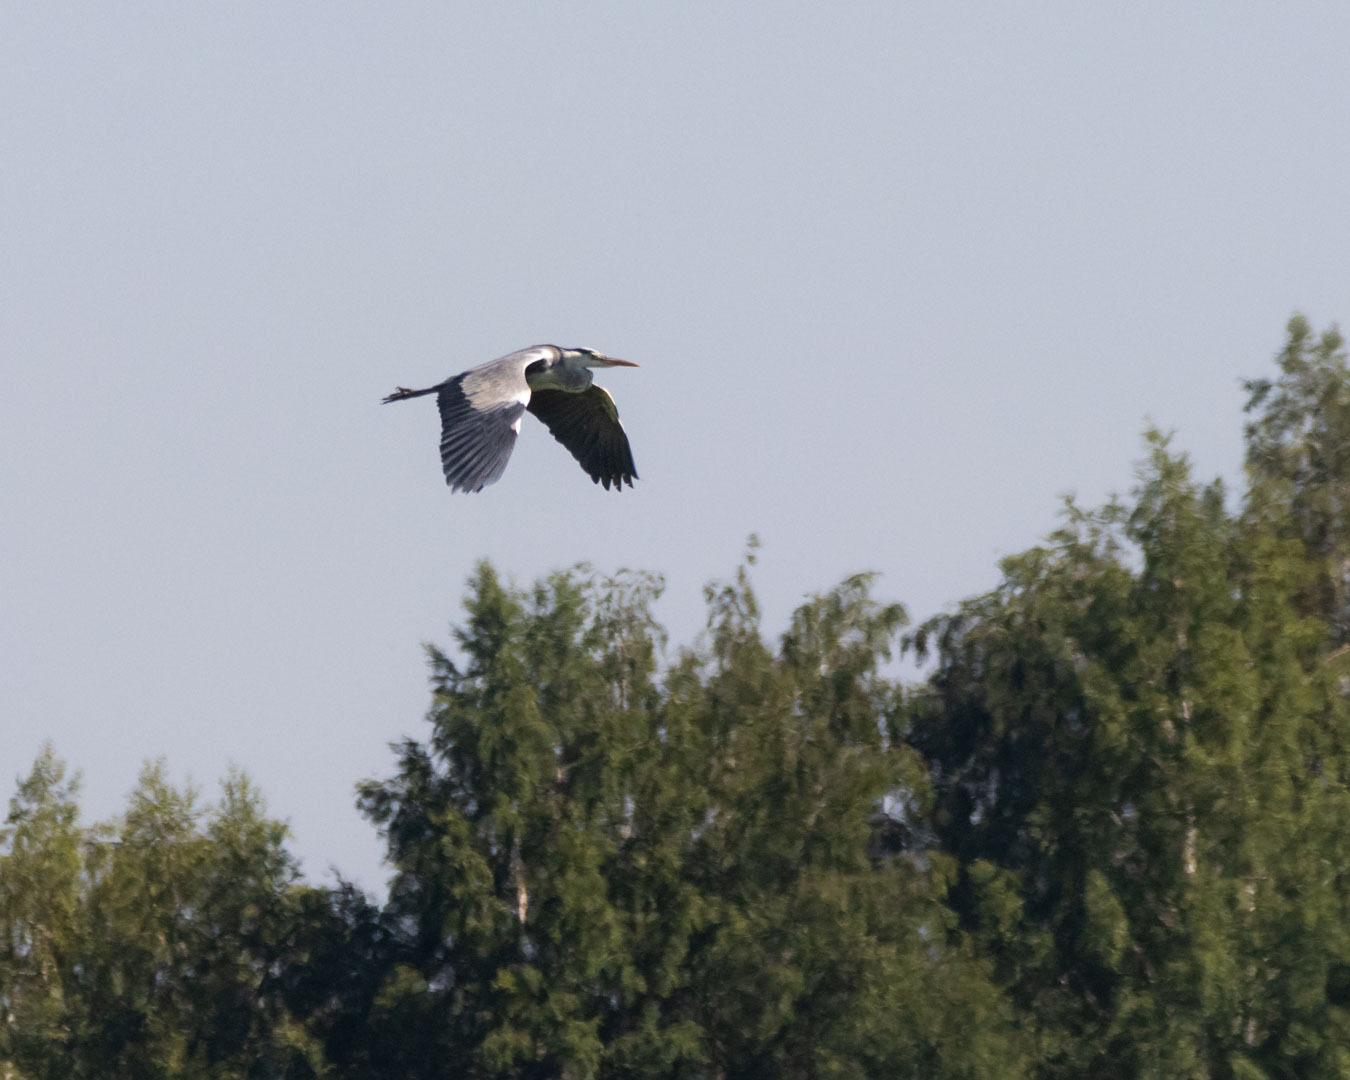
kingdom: Animalia
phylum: Chordata
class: Aves
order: Pelecaniformes
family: Ardeidae
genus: Ardea
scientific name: Ardea cinerea
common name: Grey heron
